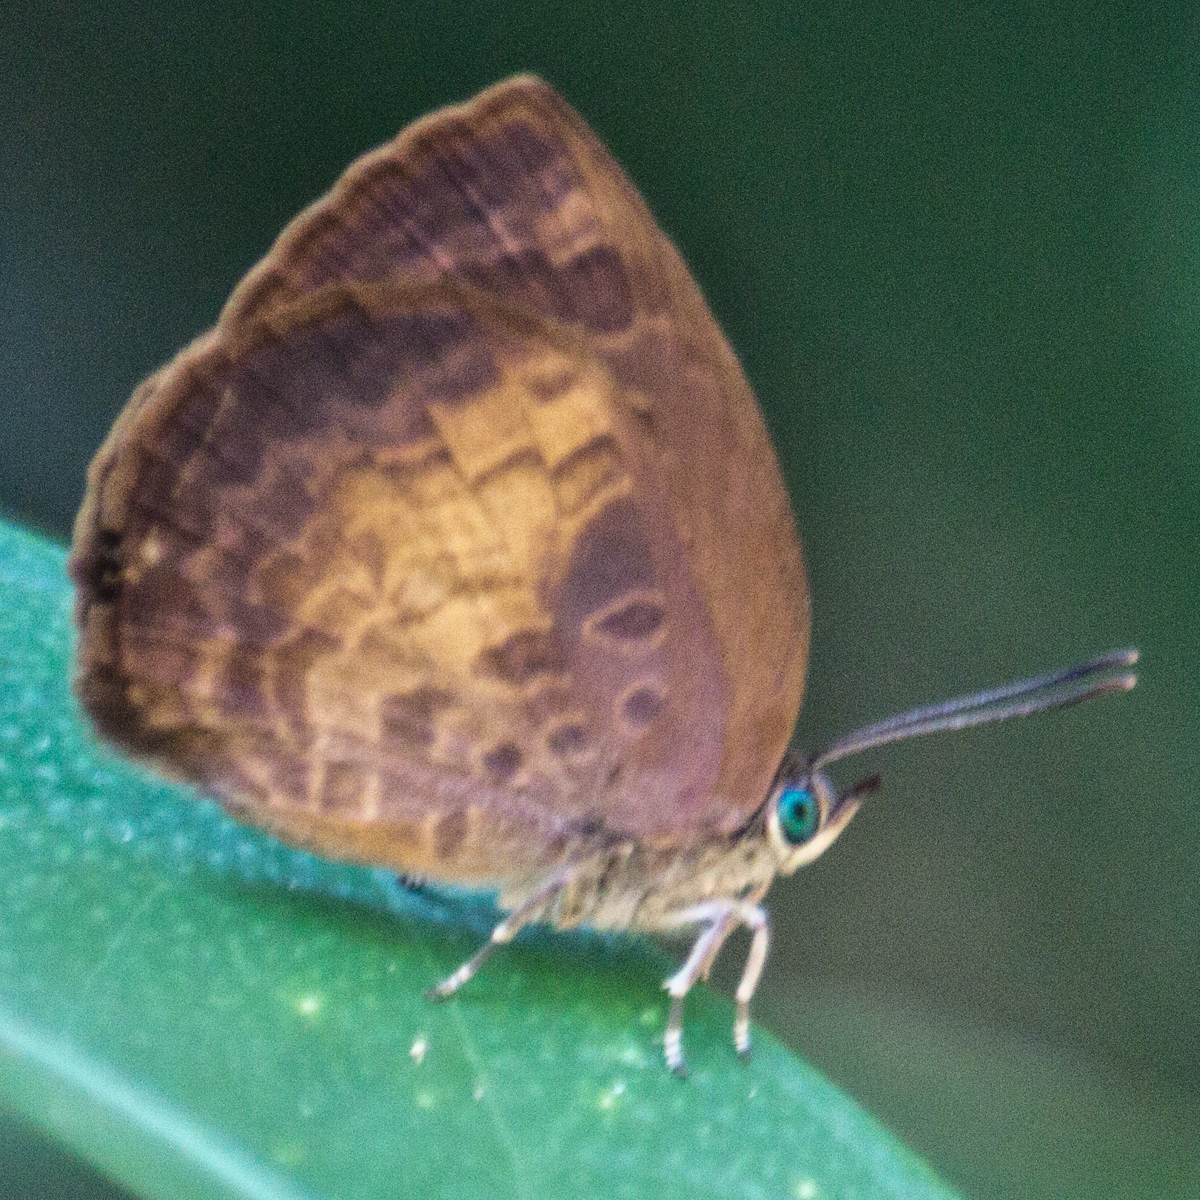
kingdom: Animalia
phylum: Arthropoda
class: Insecta
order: Lepidoptera
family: Lycaenidae
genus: Arhopala
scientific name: Arhopala perimuta
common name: Yellowdisc oakblue
